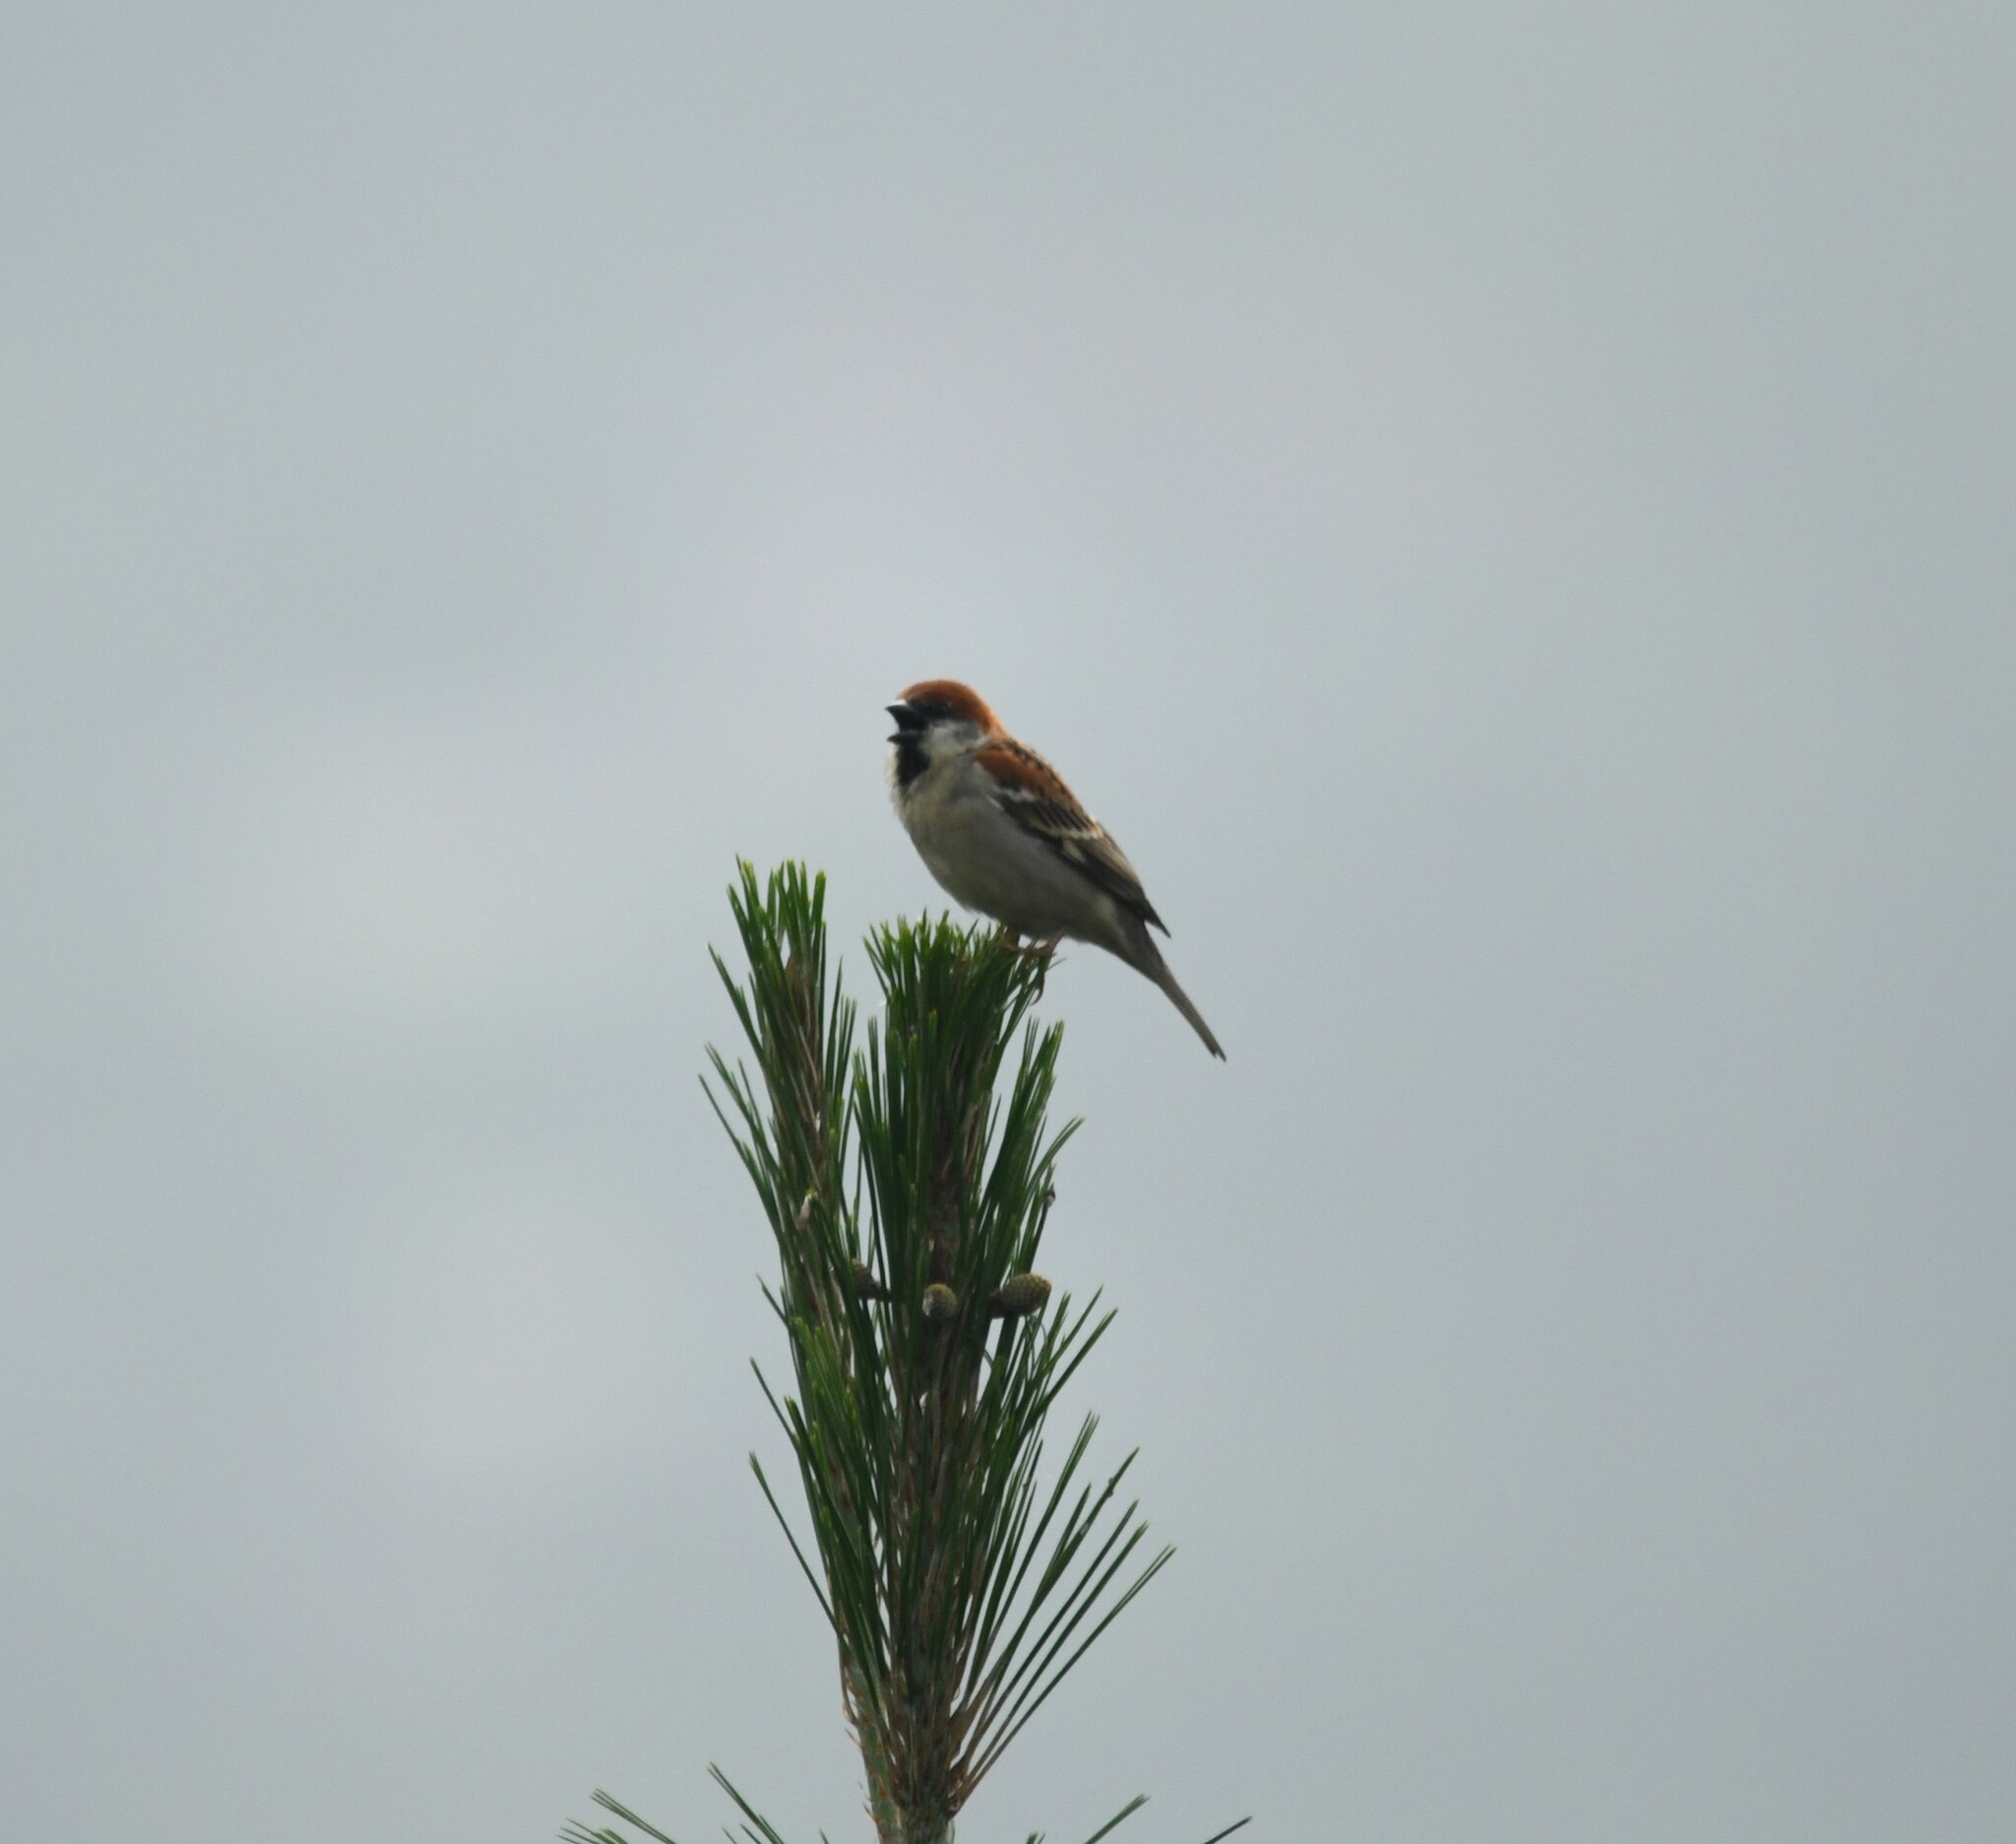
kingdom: Animalia
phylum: Chordata
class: Aves
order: Passeriformes
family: Passeridae
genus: Passer
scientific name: Passer cinnamomeus
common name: Russet sparrow
